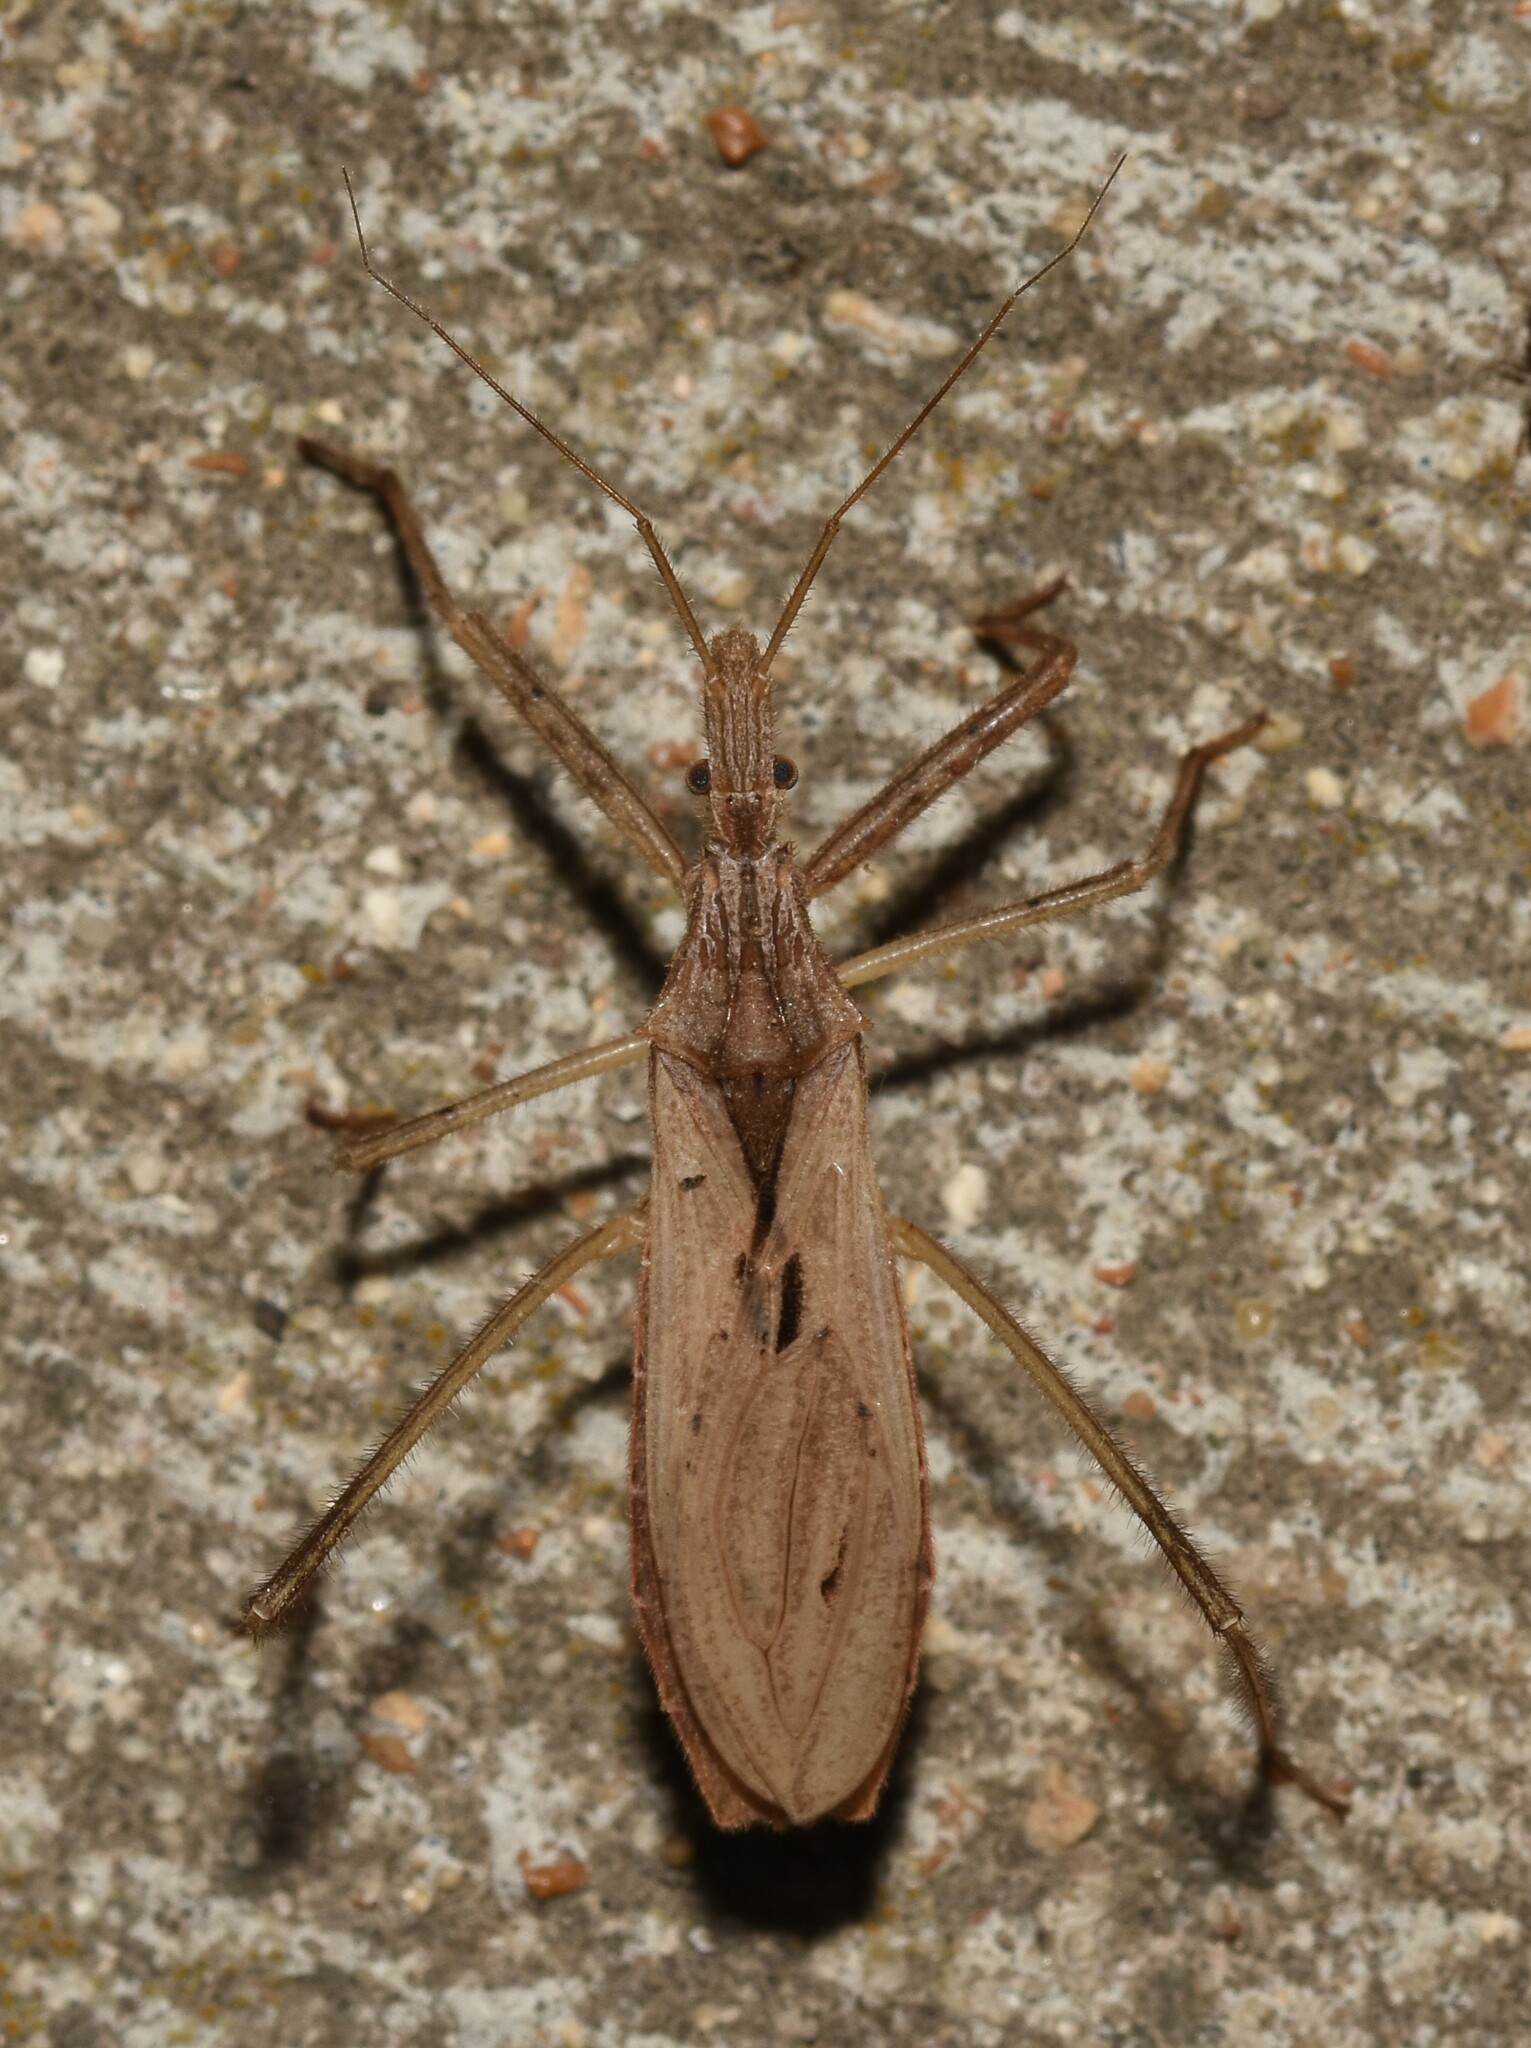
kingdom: Animalia
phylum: Arthropoda
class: Insecta
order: Hemiptera
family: Reduviidae
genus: Stenopoda
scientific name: Stenopoda spinulosa
